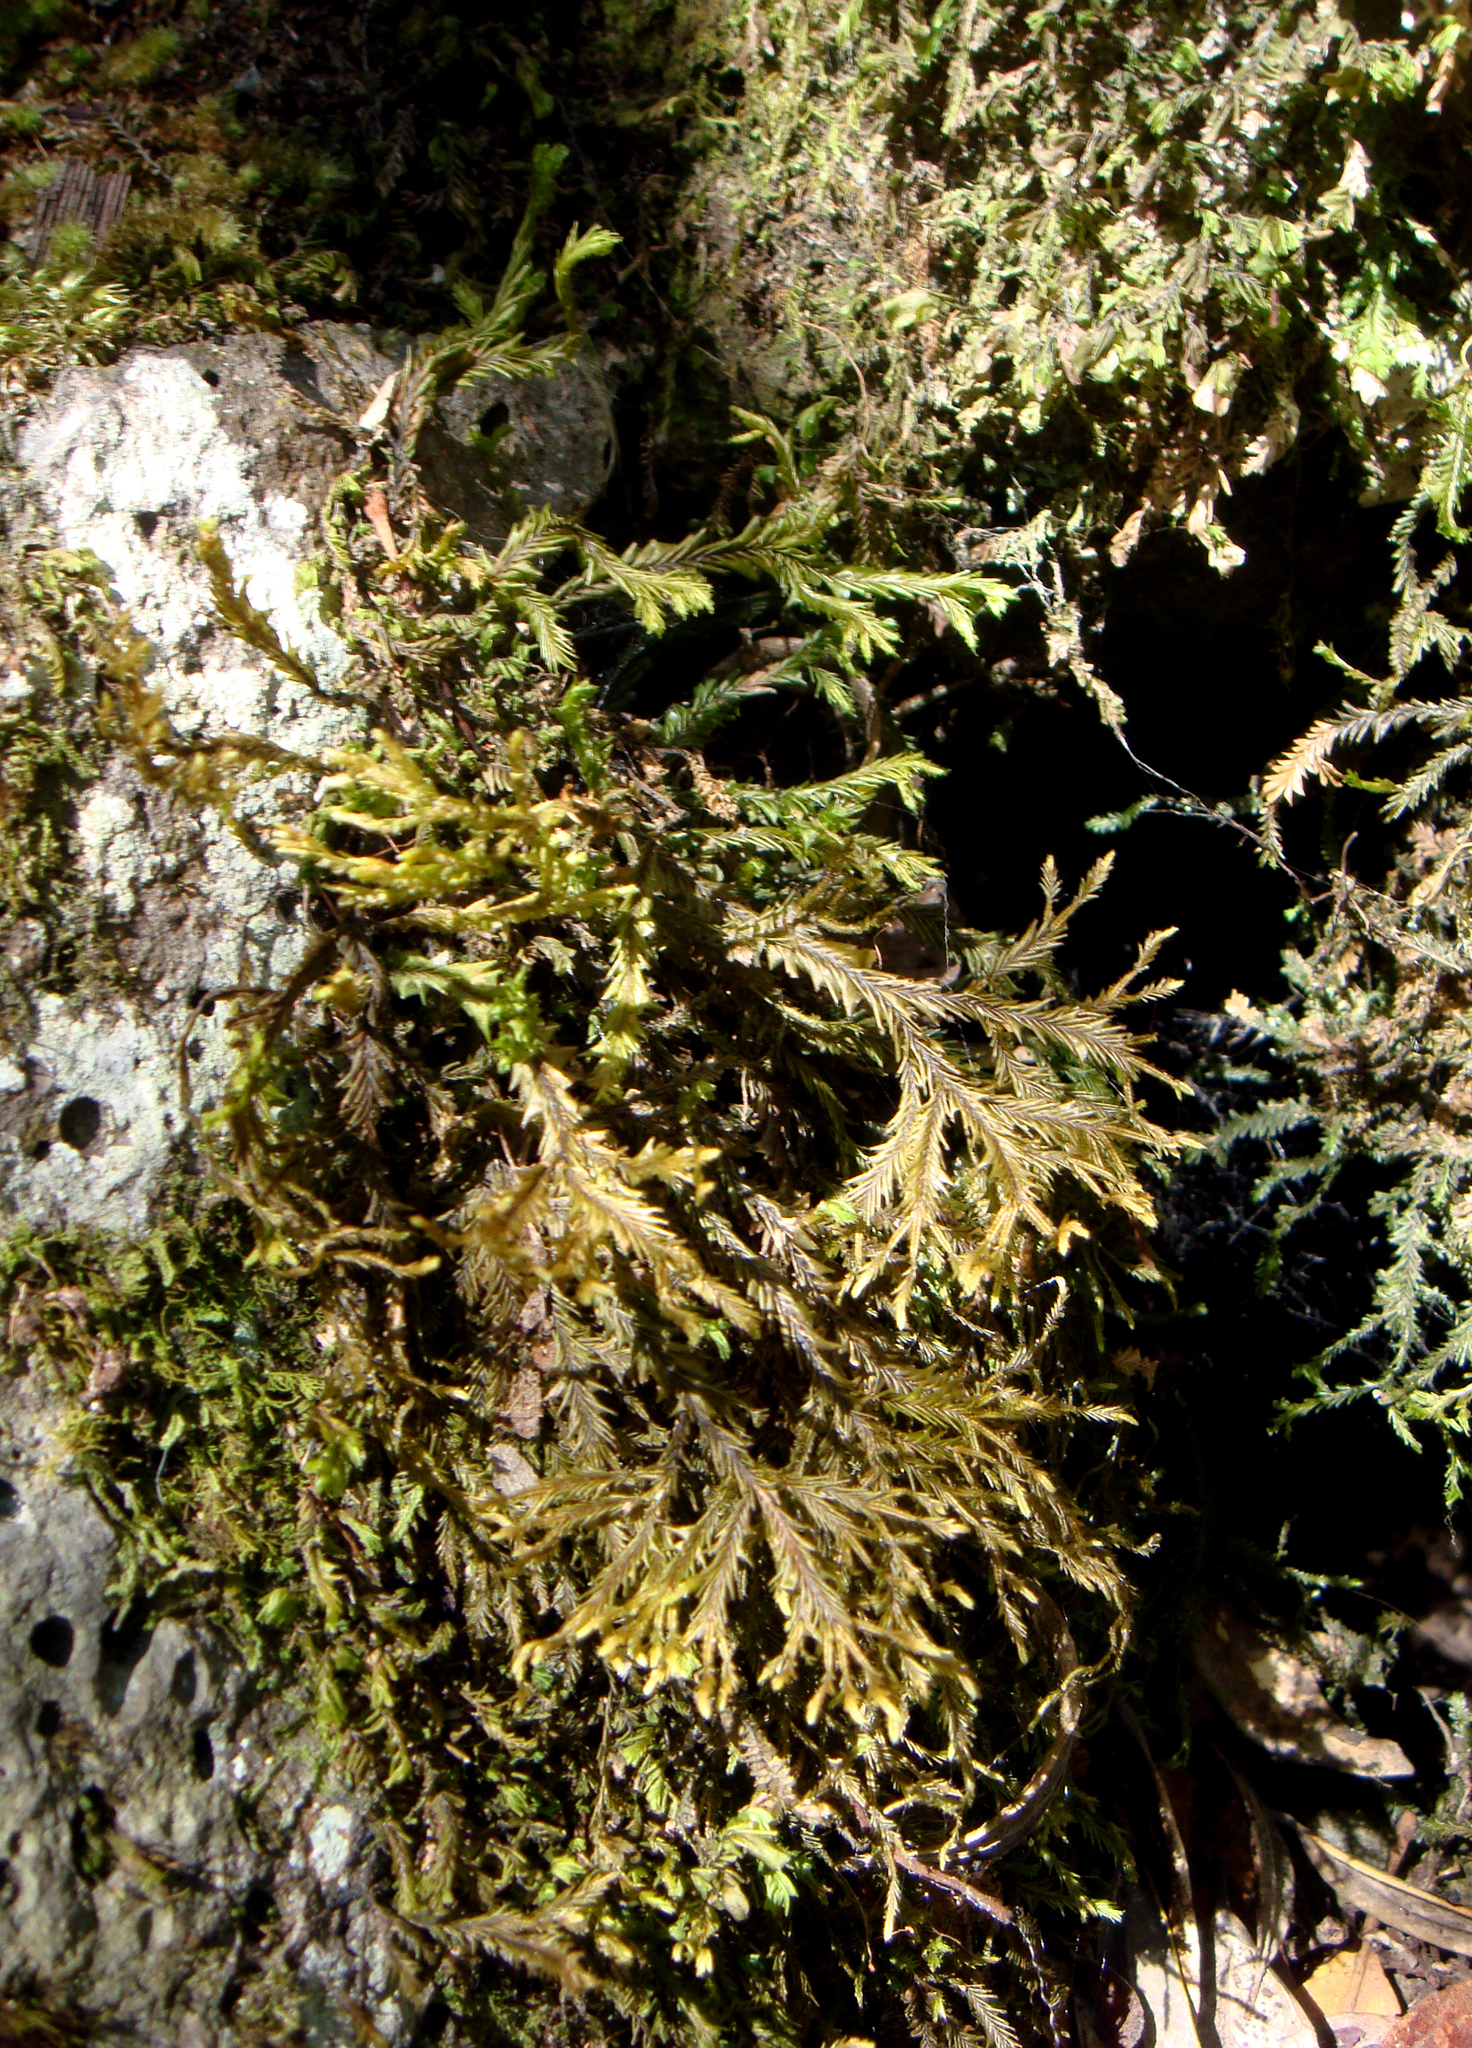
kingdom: Plantae
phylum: Marchantiophyta
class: Jungermanniopsida
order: Jungermanniales
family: Plagiochilaceae
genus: Plagiochila
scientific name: Plagiochila arbuscula
